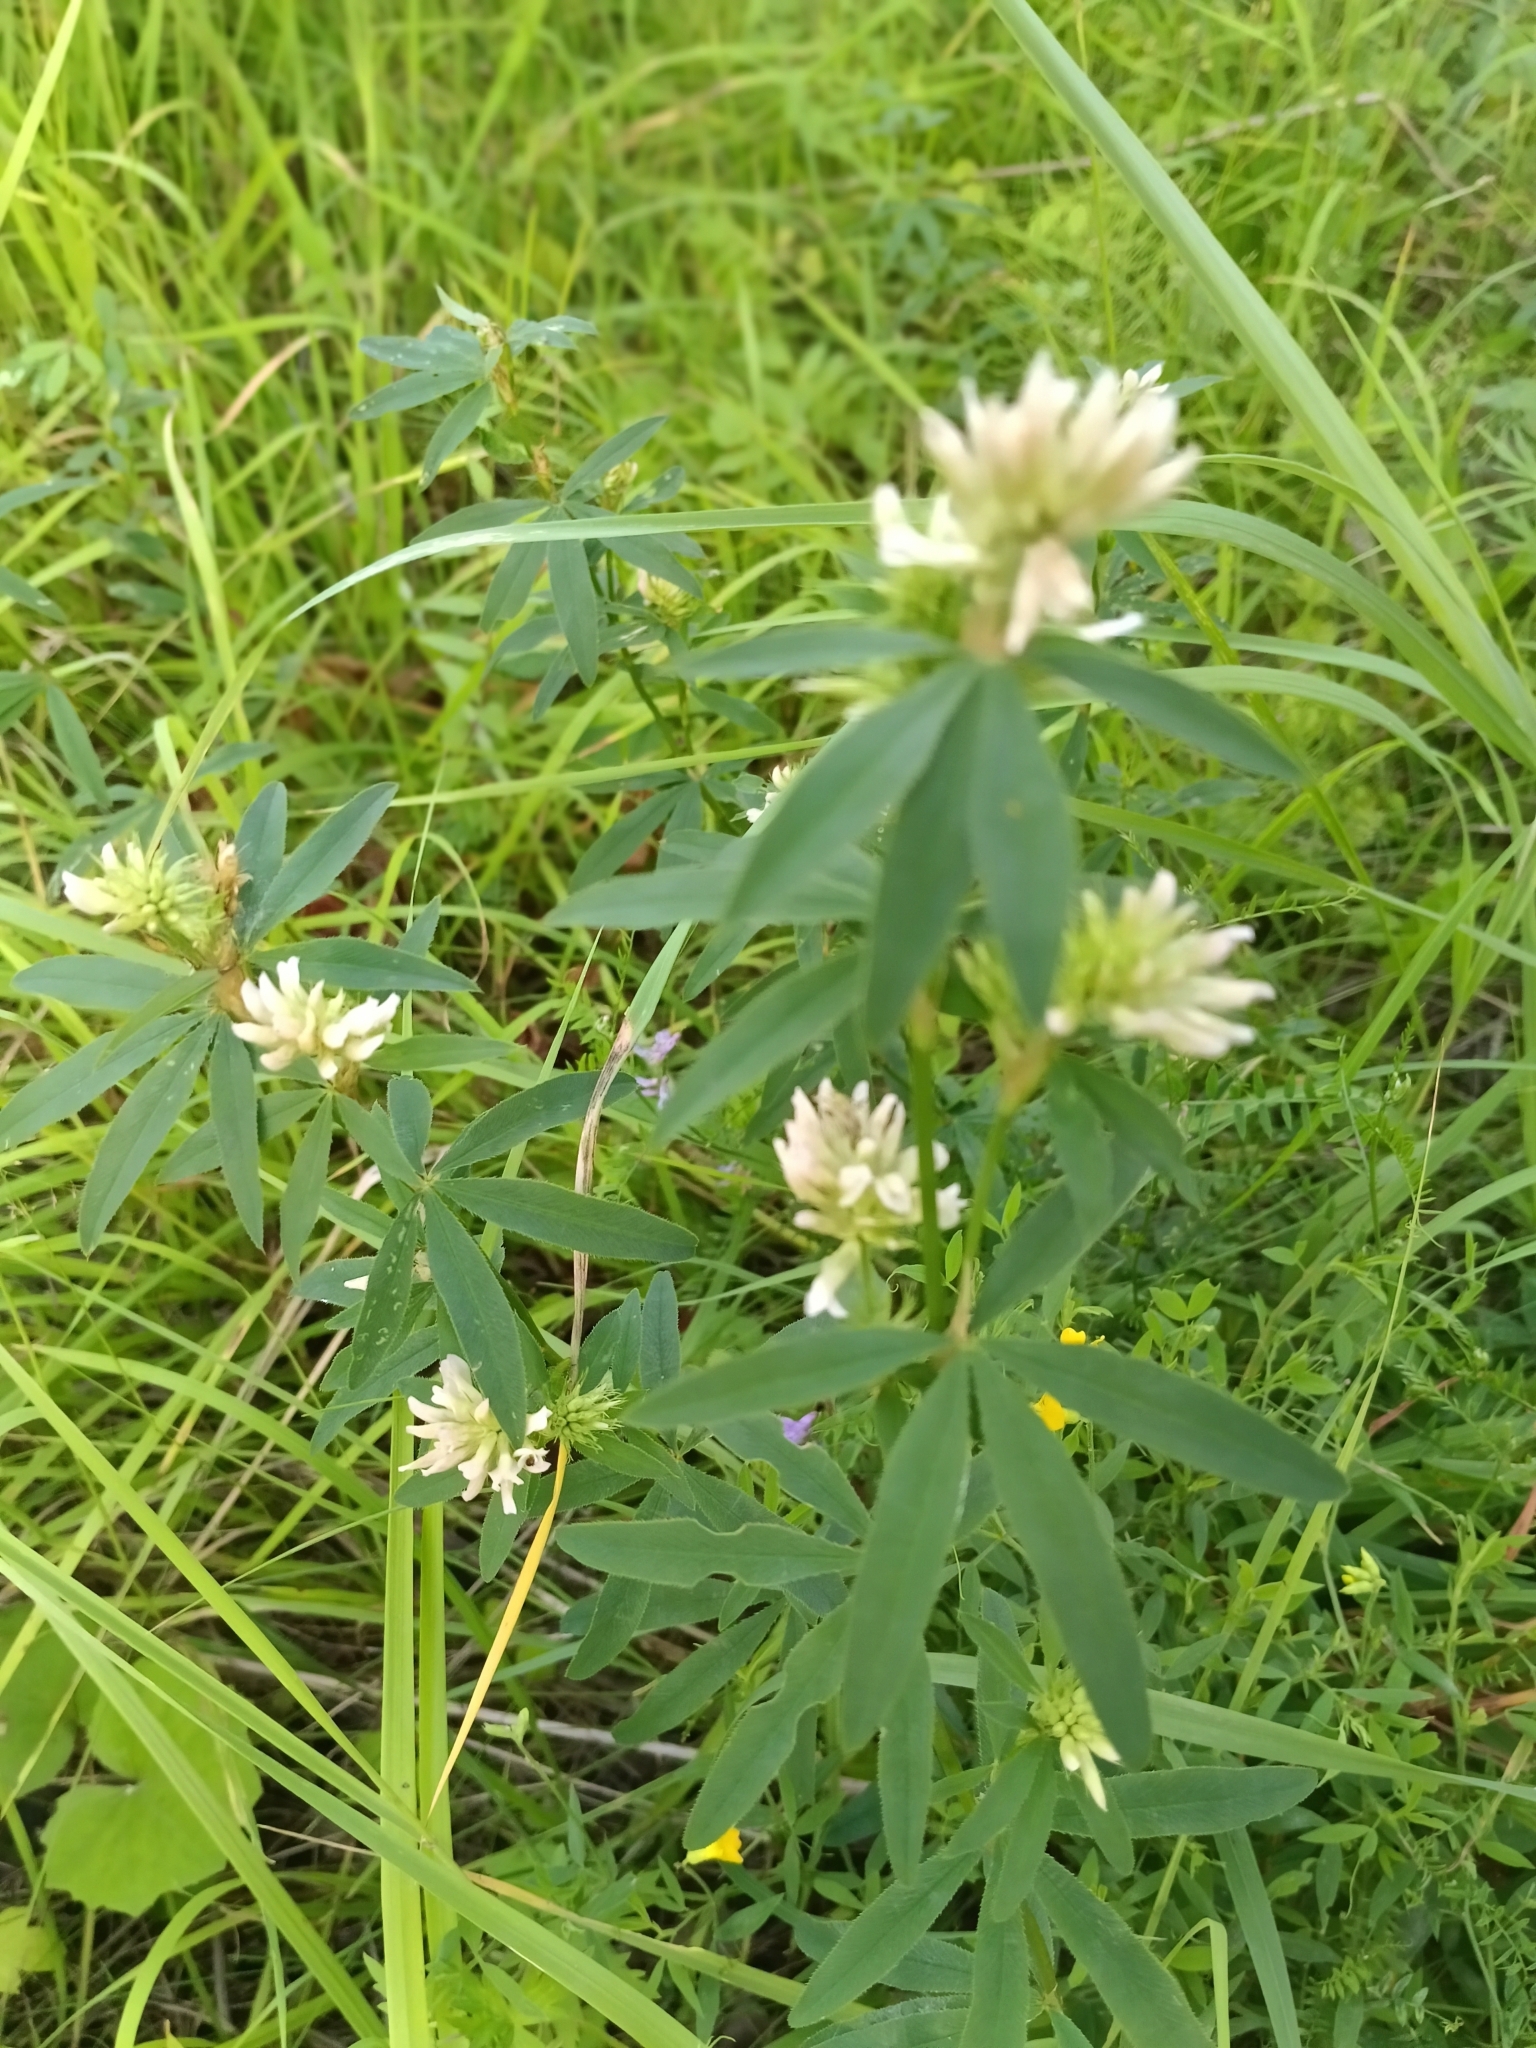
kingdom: Plantae
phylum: Tracheophyta
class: Magnoliopsida
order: Fabales
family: Fabaceae
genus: Trifolium
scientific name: Trifolium lupinaster
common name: Lupine clover
